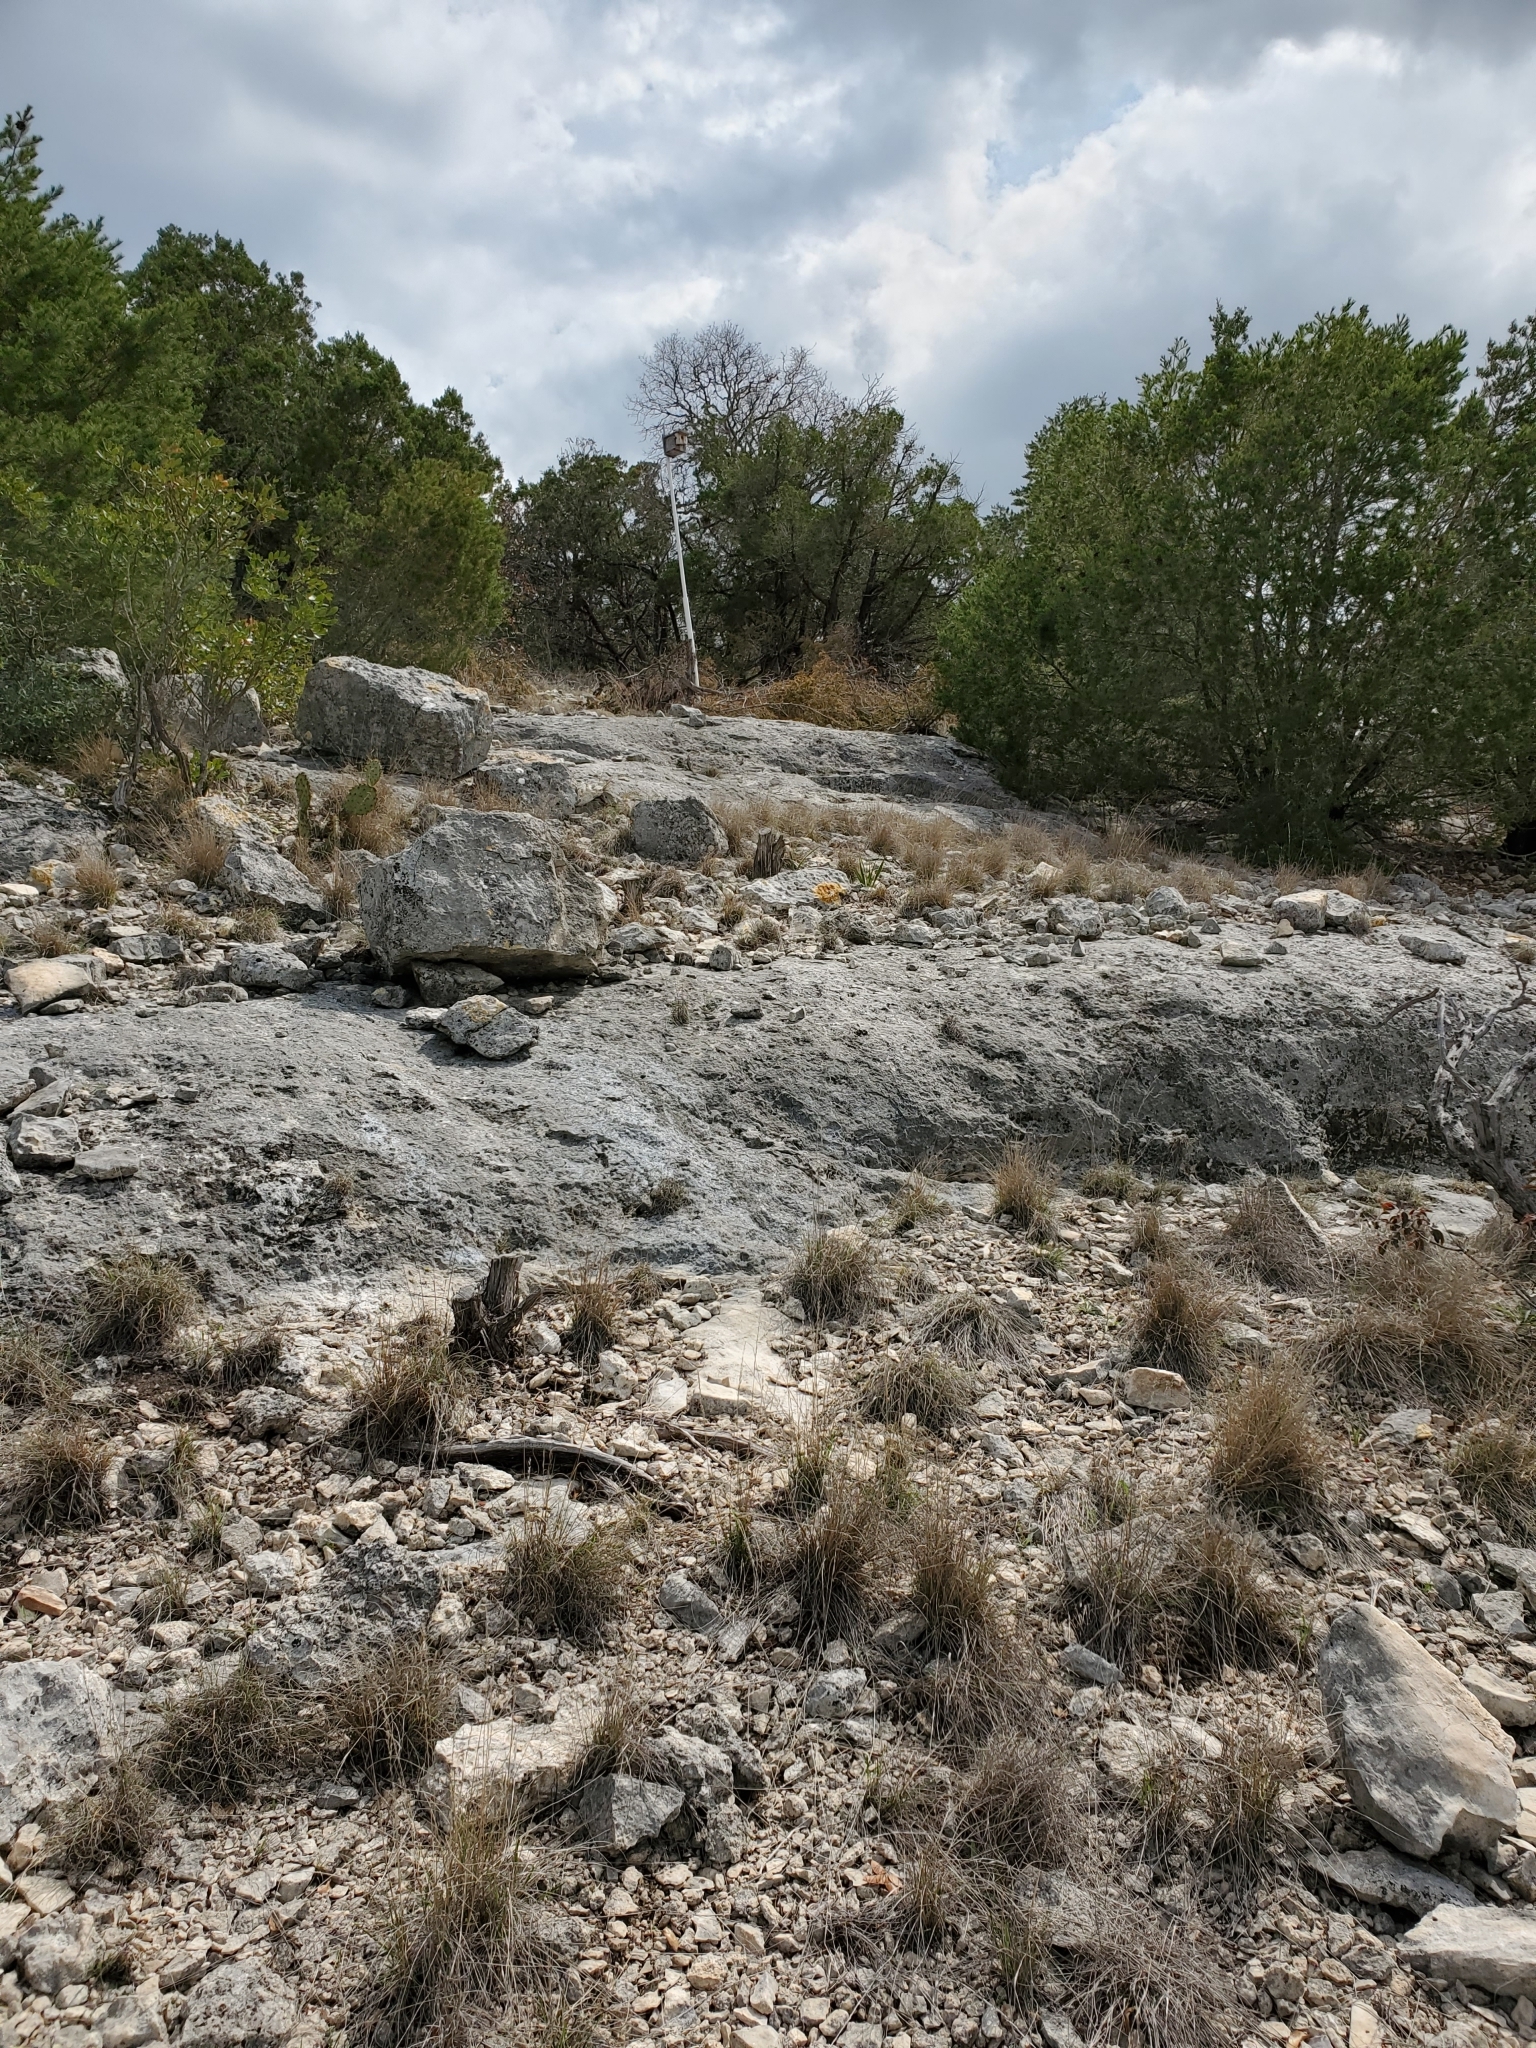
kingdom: Plantae
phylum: Tracheophyta
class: Magnoliopsida
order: Ranunculales
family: Ranunculaceae
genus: Anemone
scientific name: Anemone edwardsiana
